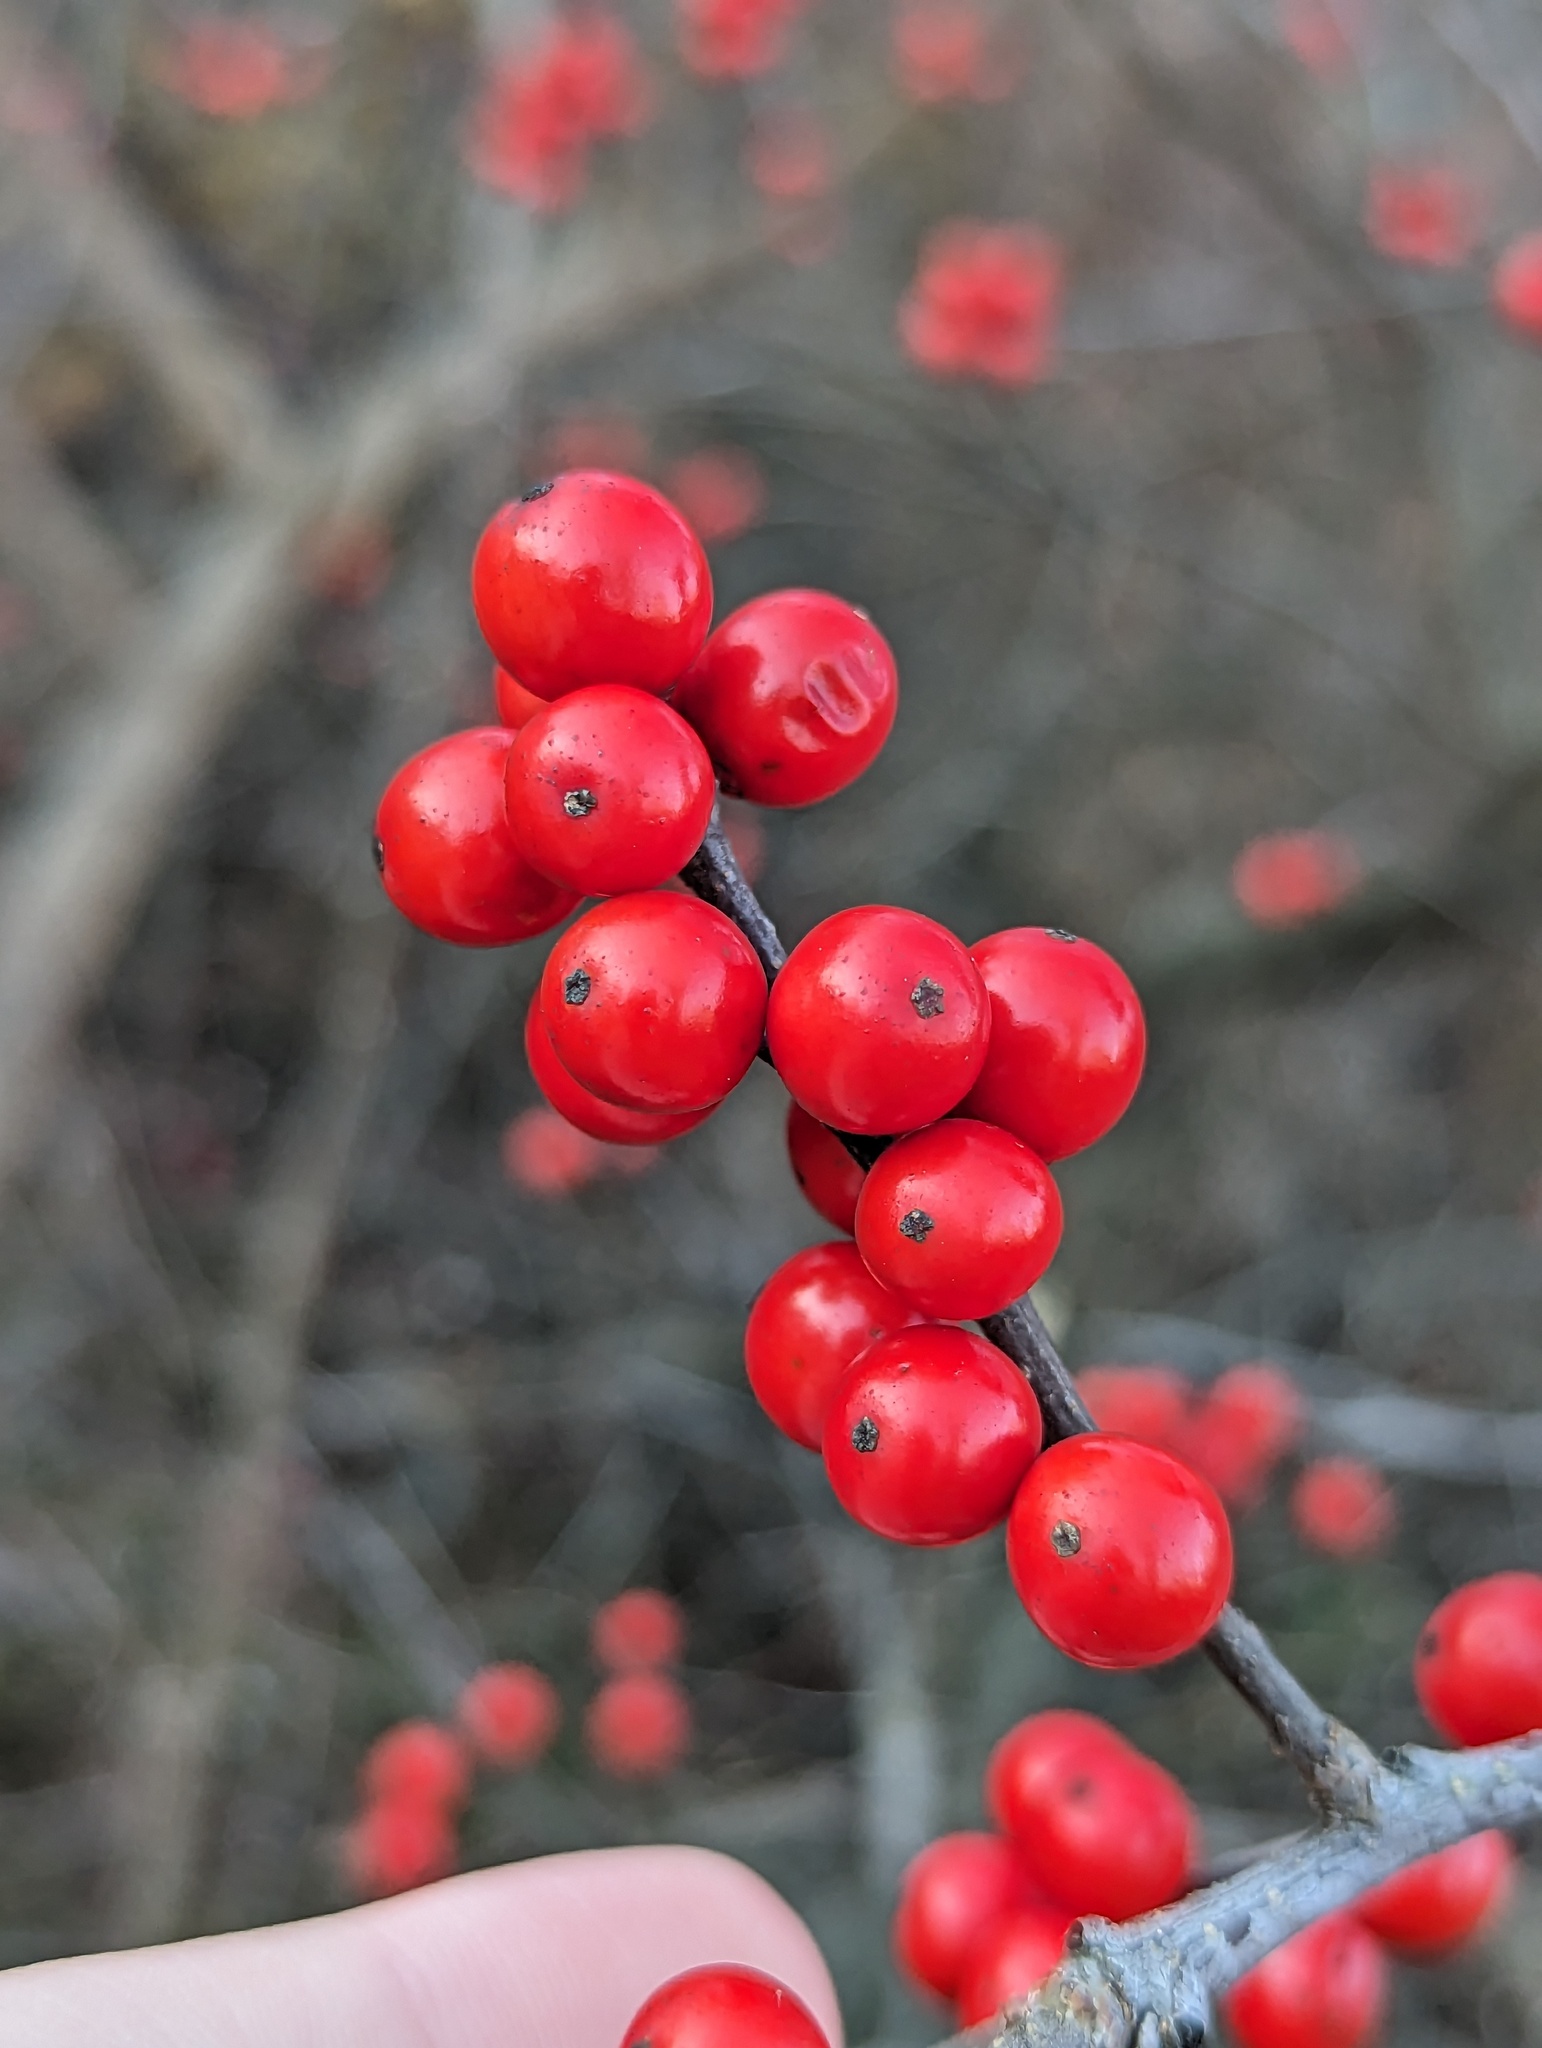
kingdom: Plantae
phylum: Tracheophyta
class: Magnoliopsida
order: Aquifoliales
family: Aquifoliaceae
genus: Ilex
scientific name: Ilex verticillata
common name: Virginia winterberry
